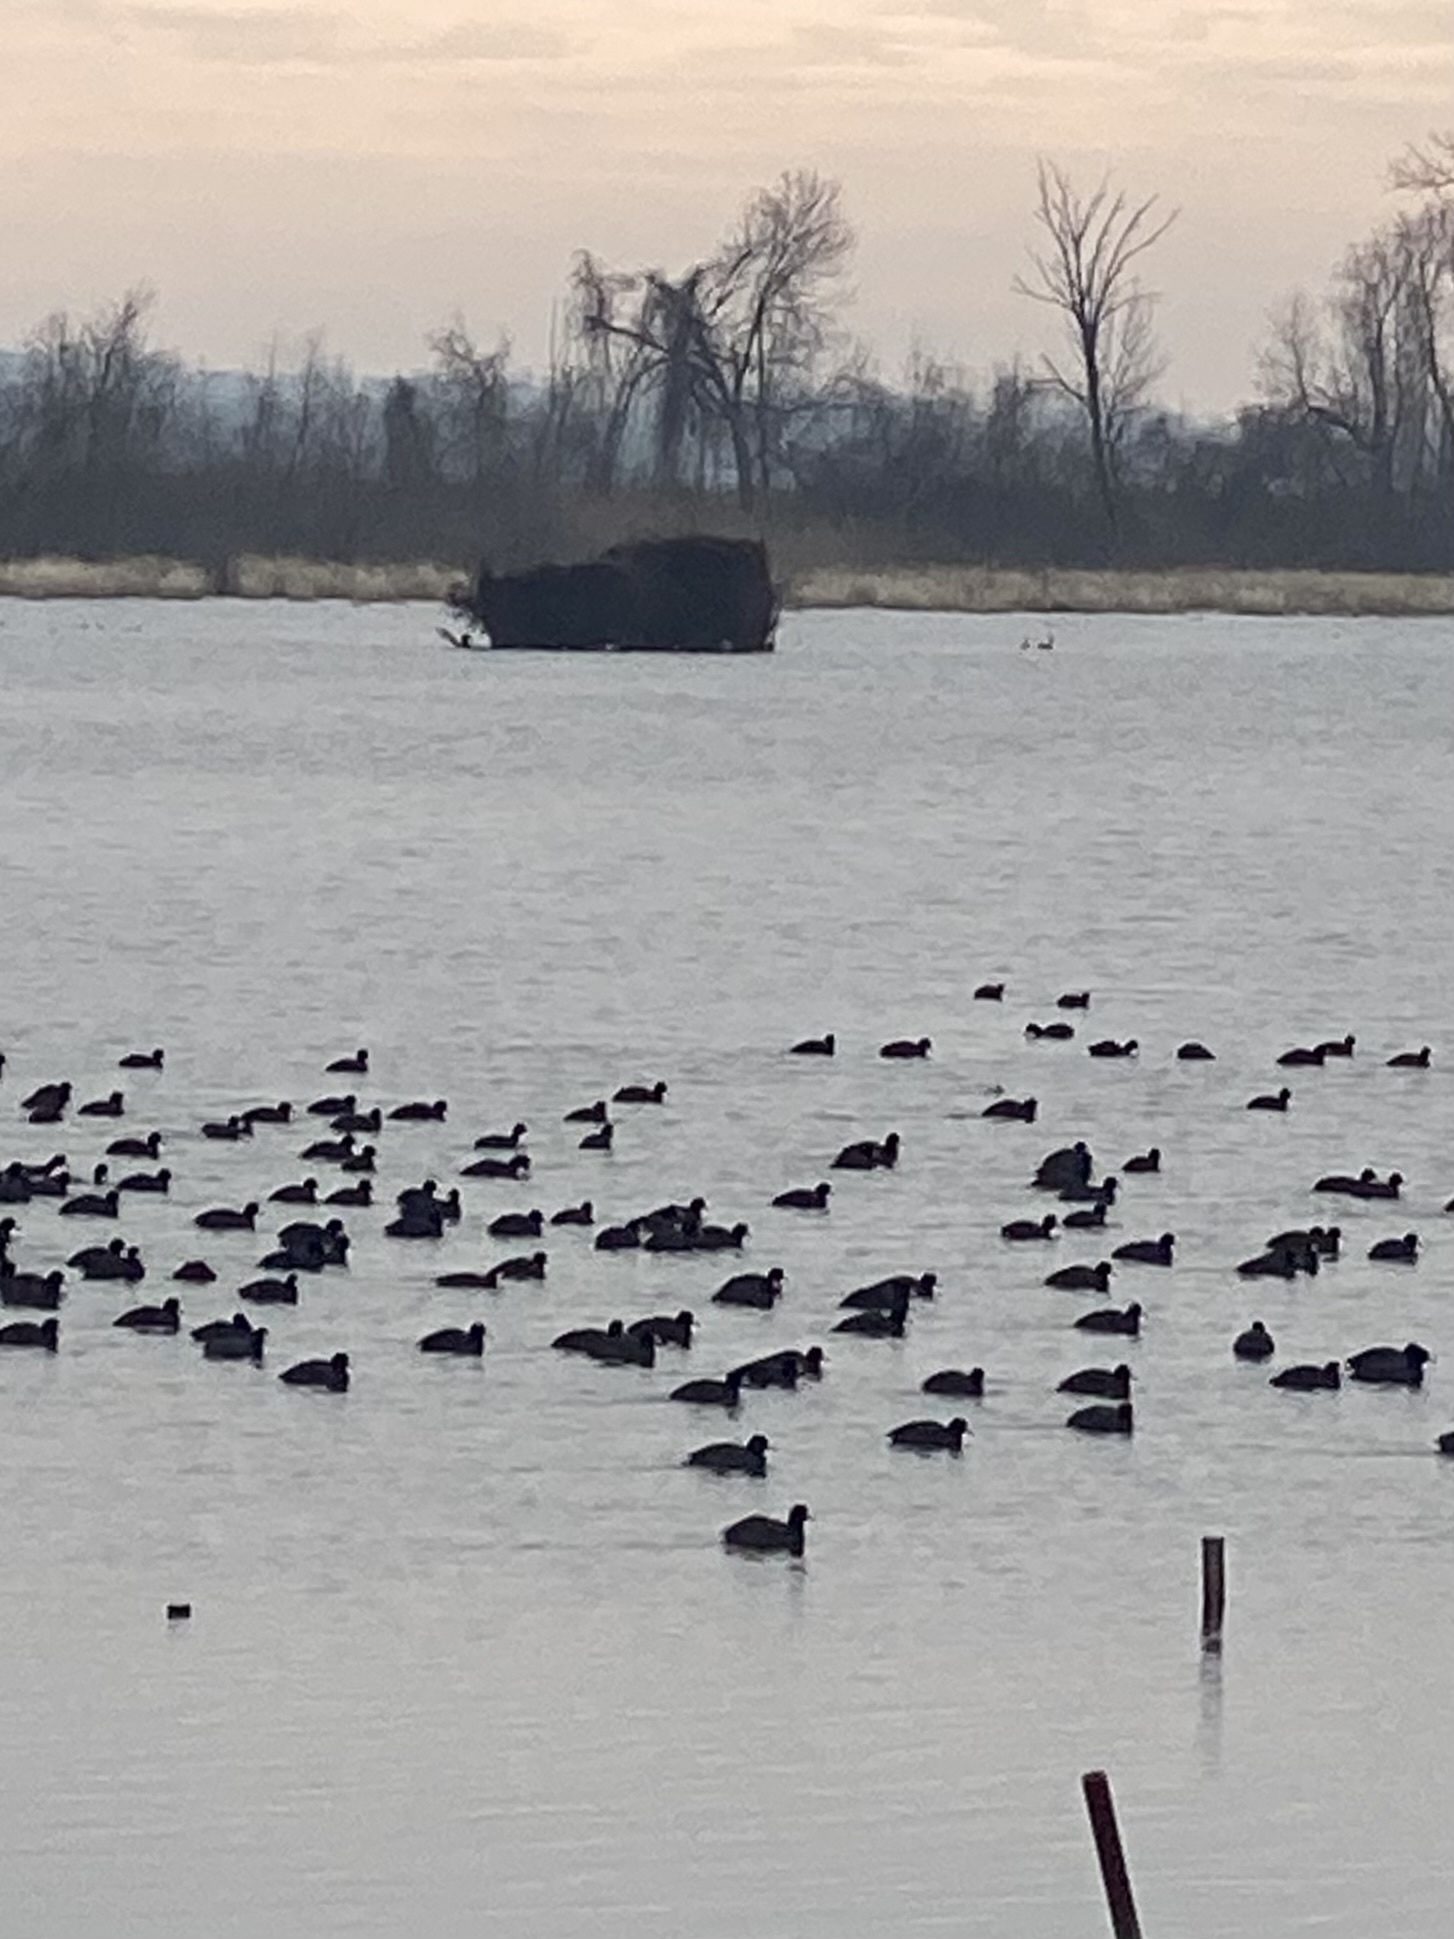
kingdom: Animalia
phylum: Chordata
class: Aves
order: Gruiformes
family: Rallidae
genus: Fulica
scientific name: Fulica americana
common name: American coot
